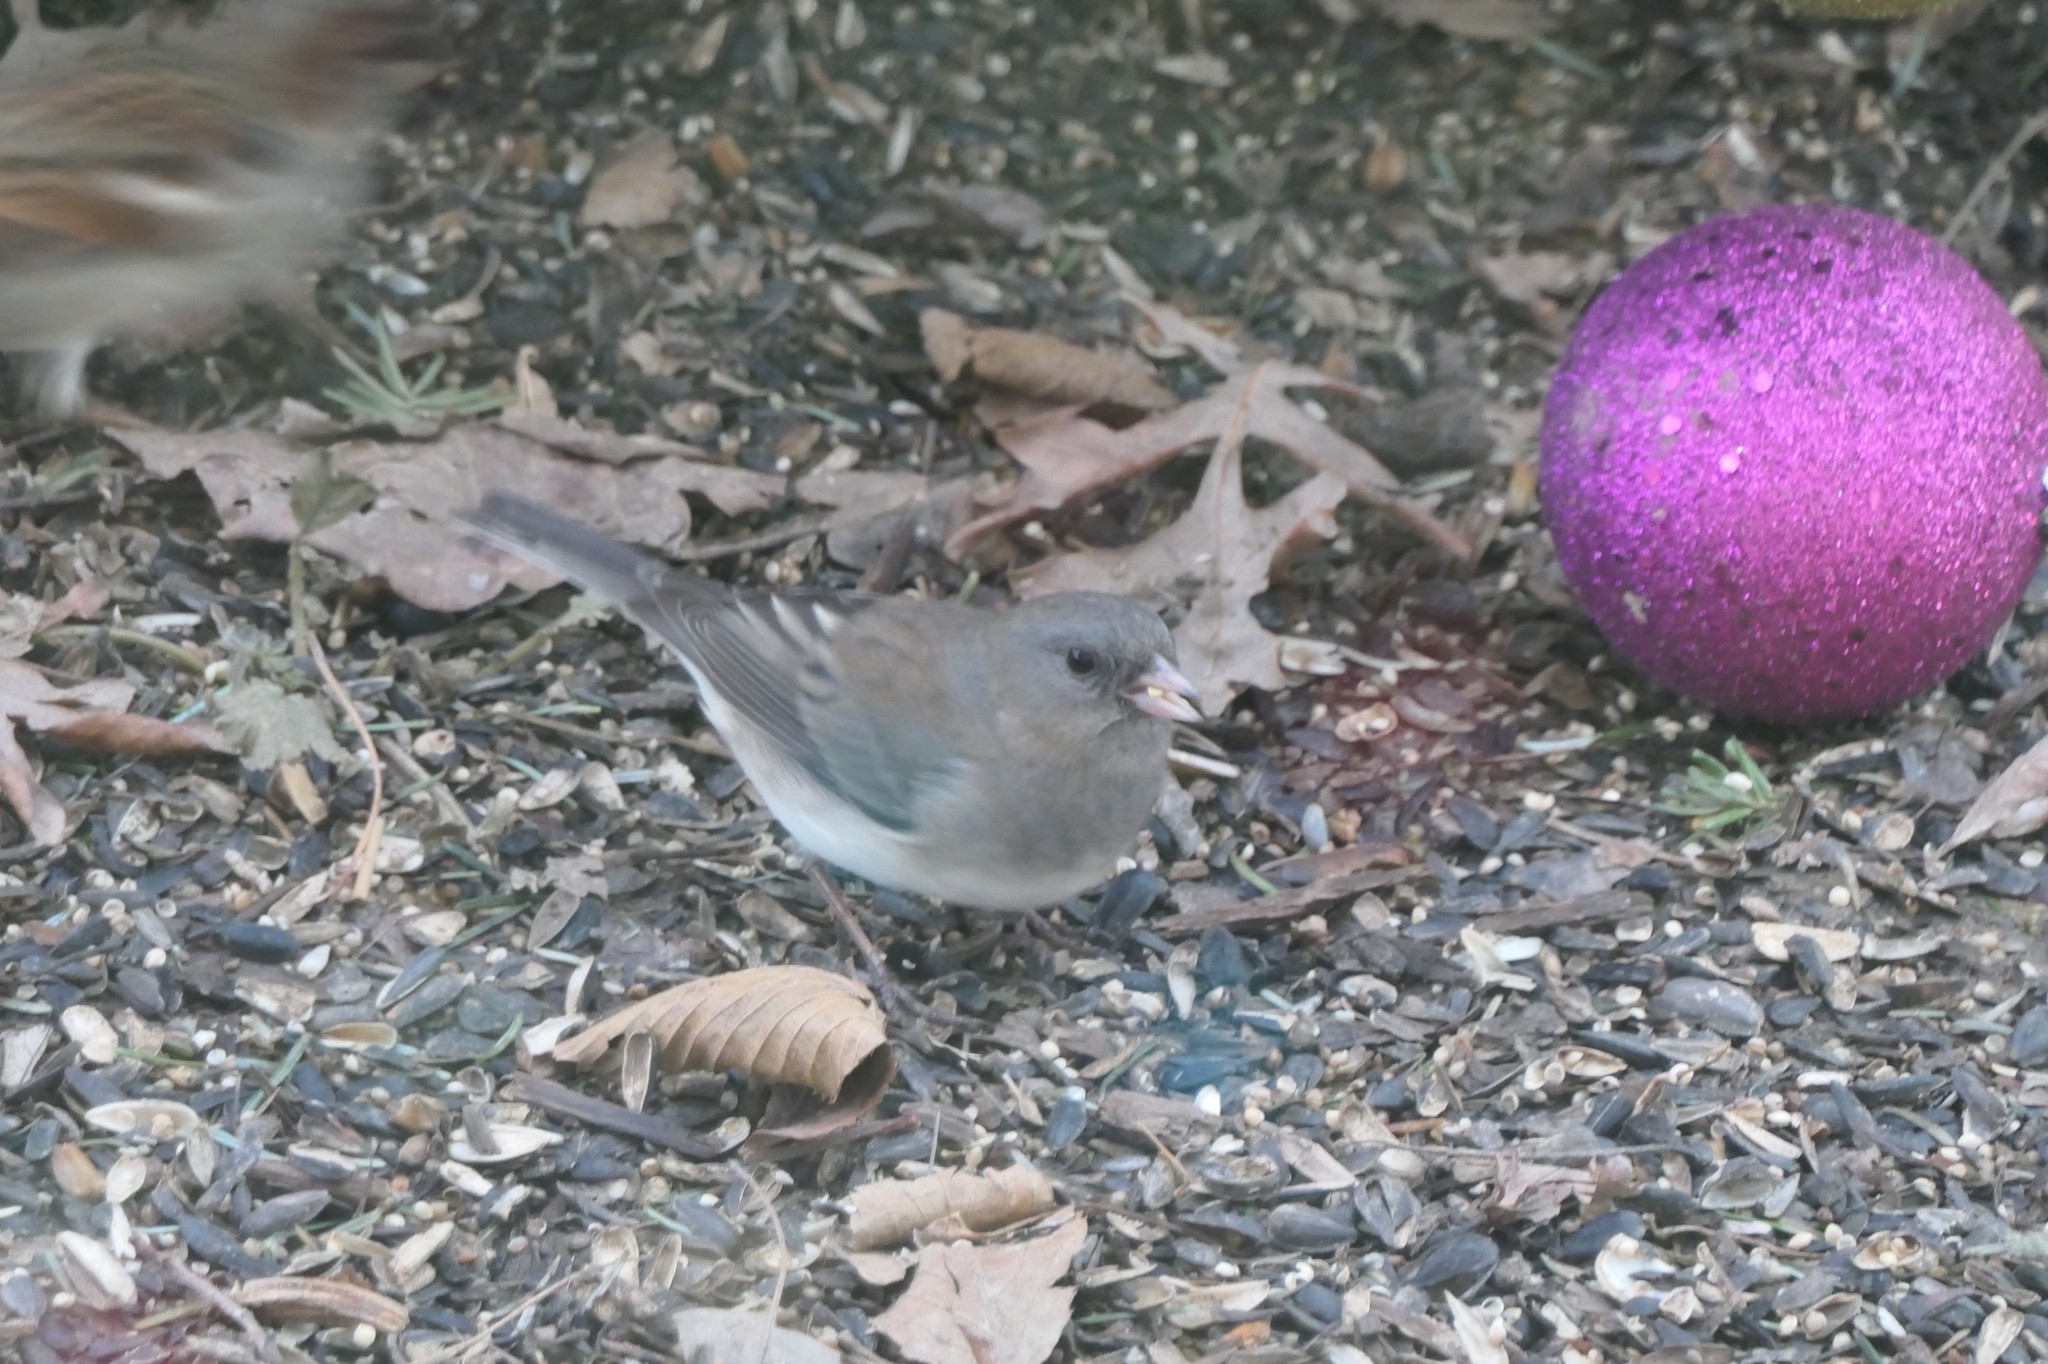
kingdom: Animalia
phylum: Chordata
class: Aves
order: Passeriformes
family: Passerellidae
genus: Junco
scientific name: Junco hyemalis
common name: Dark-eyed junco
